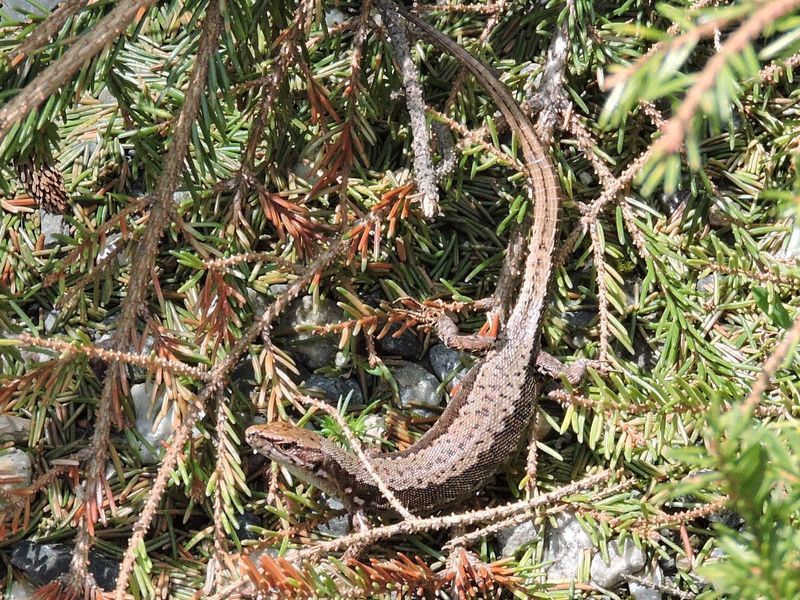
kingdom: Animalia
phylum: Chordata
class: Squamata
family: Lacertidae
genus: Darevskia
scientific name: Darevskia derjugini
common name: Derjugin's lizard
